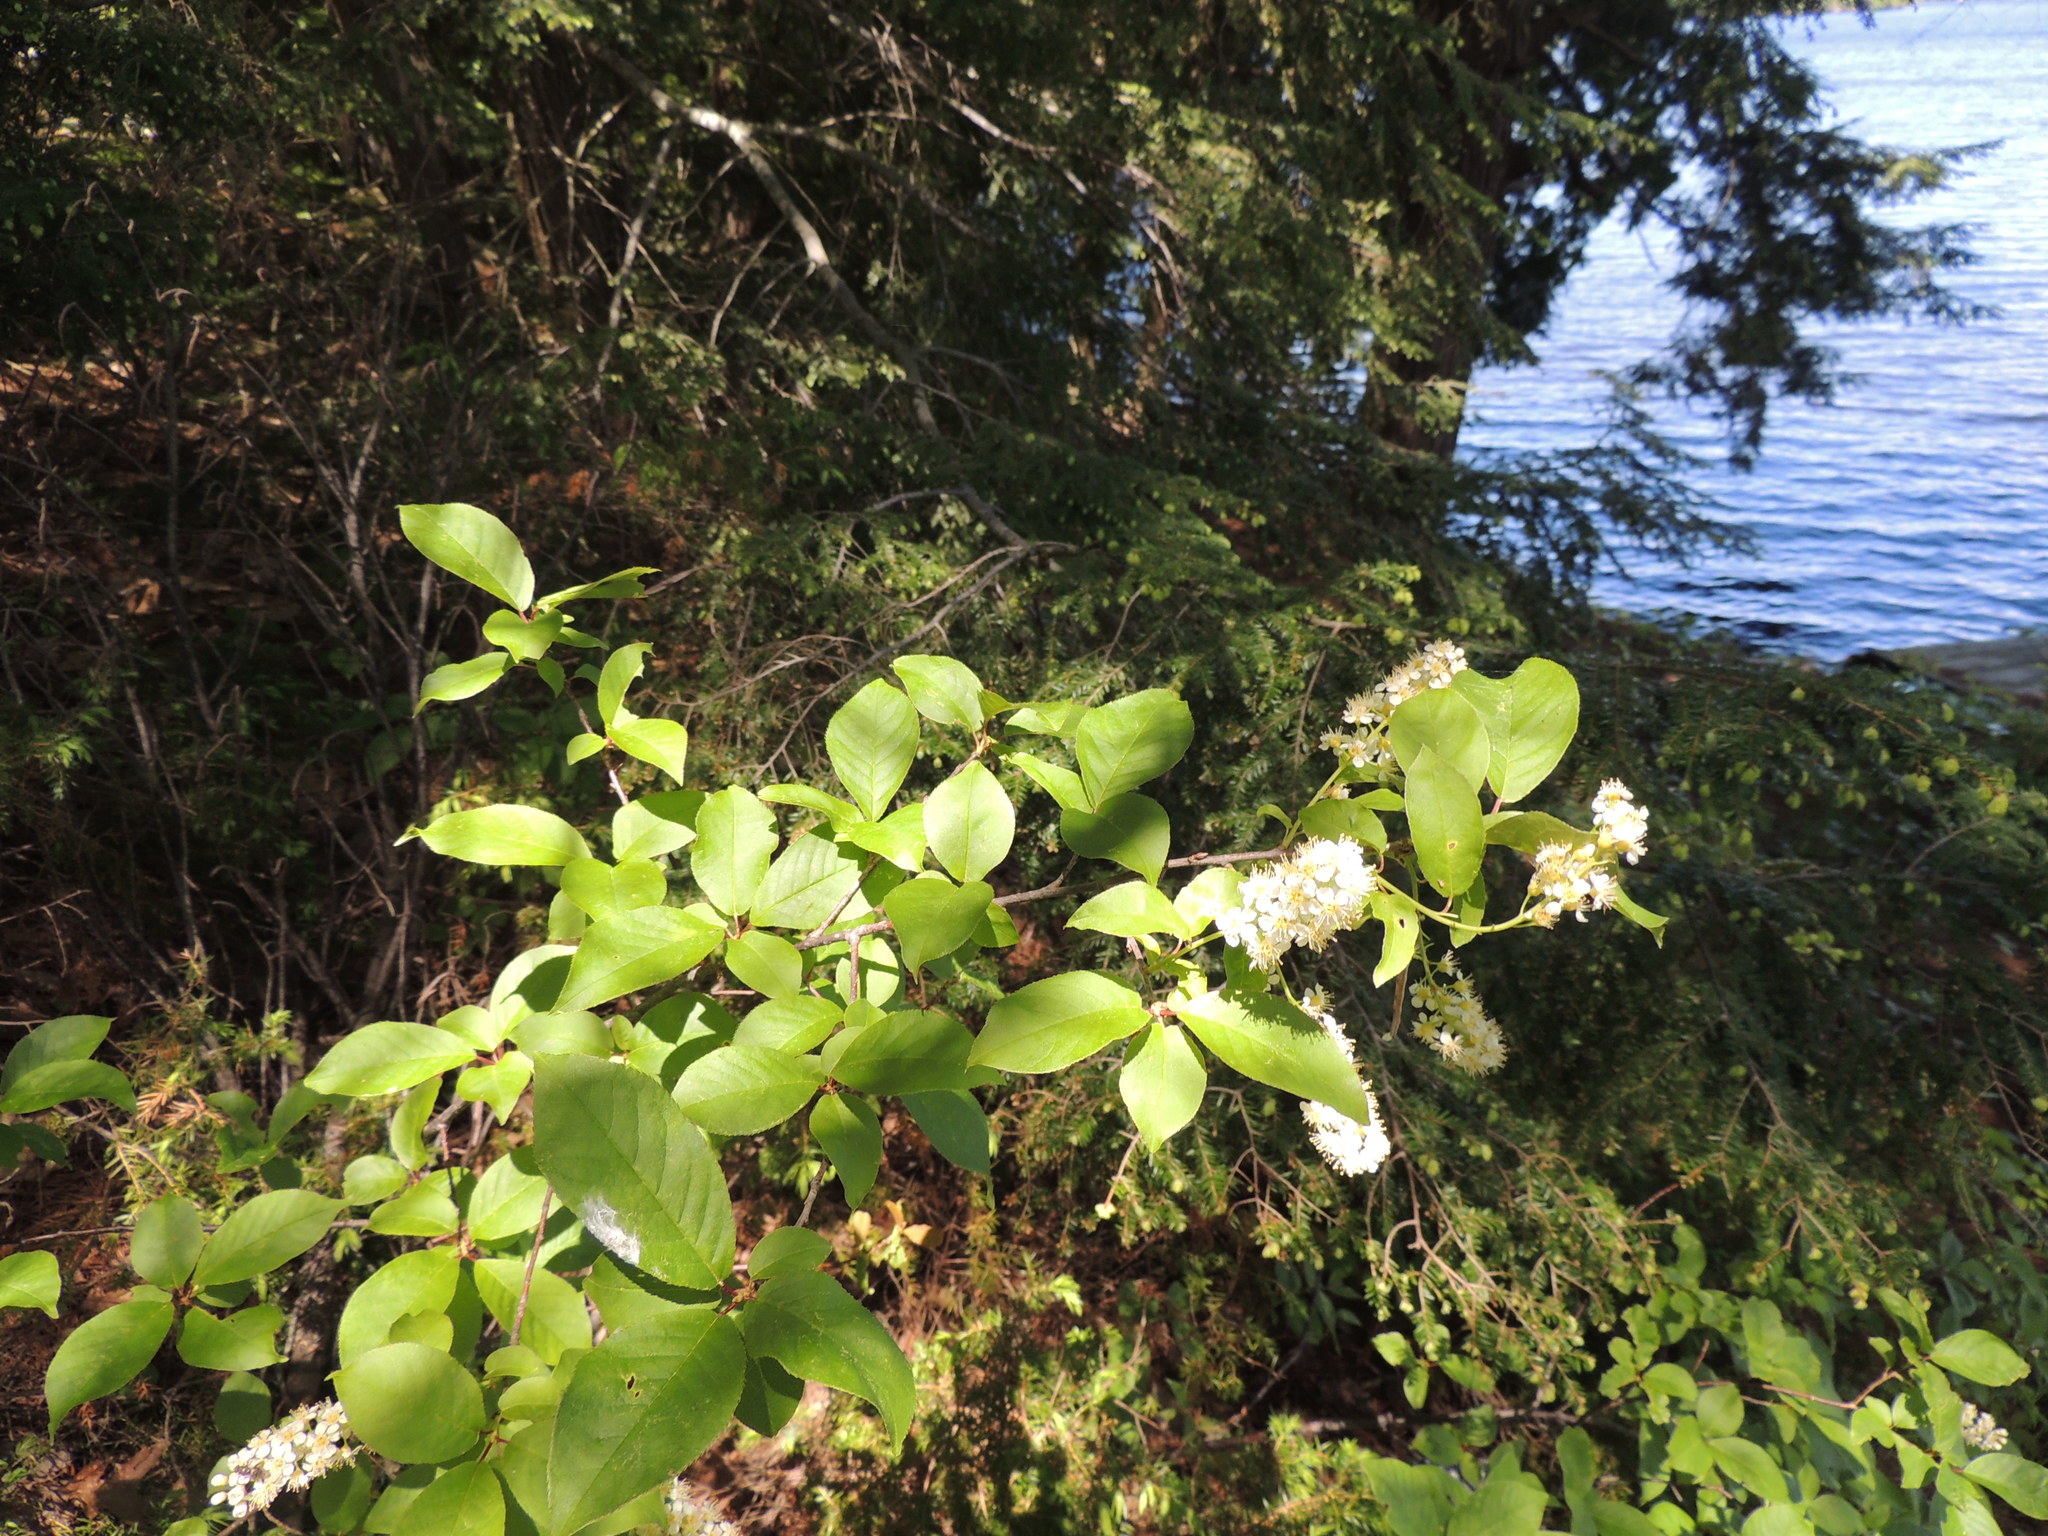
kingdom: Plantae
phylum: Tracheophyta
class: Magnoliopsida
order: Rosales
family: Rosaceae
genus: Prunus
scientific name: Prunus virginiana
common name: Chokecherry
